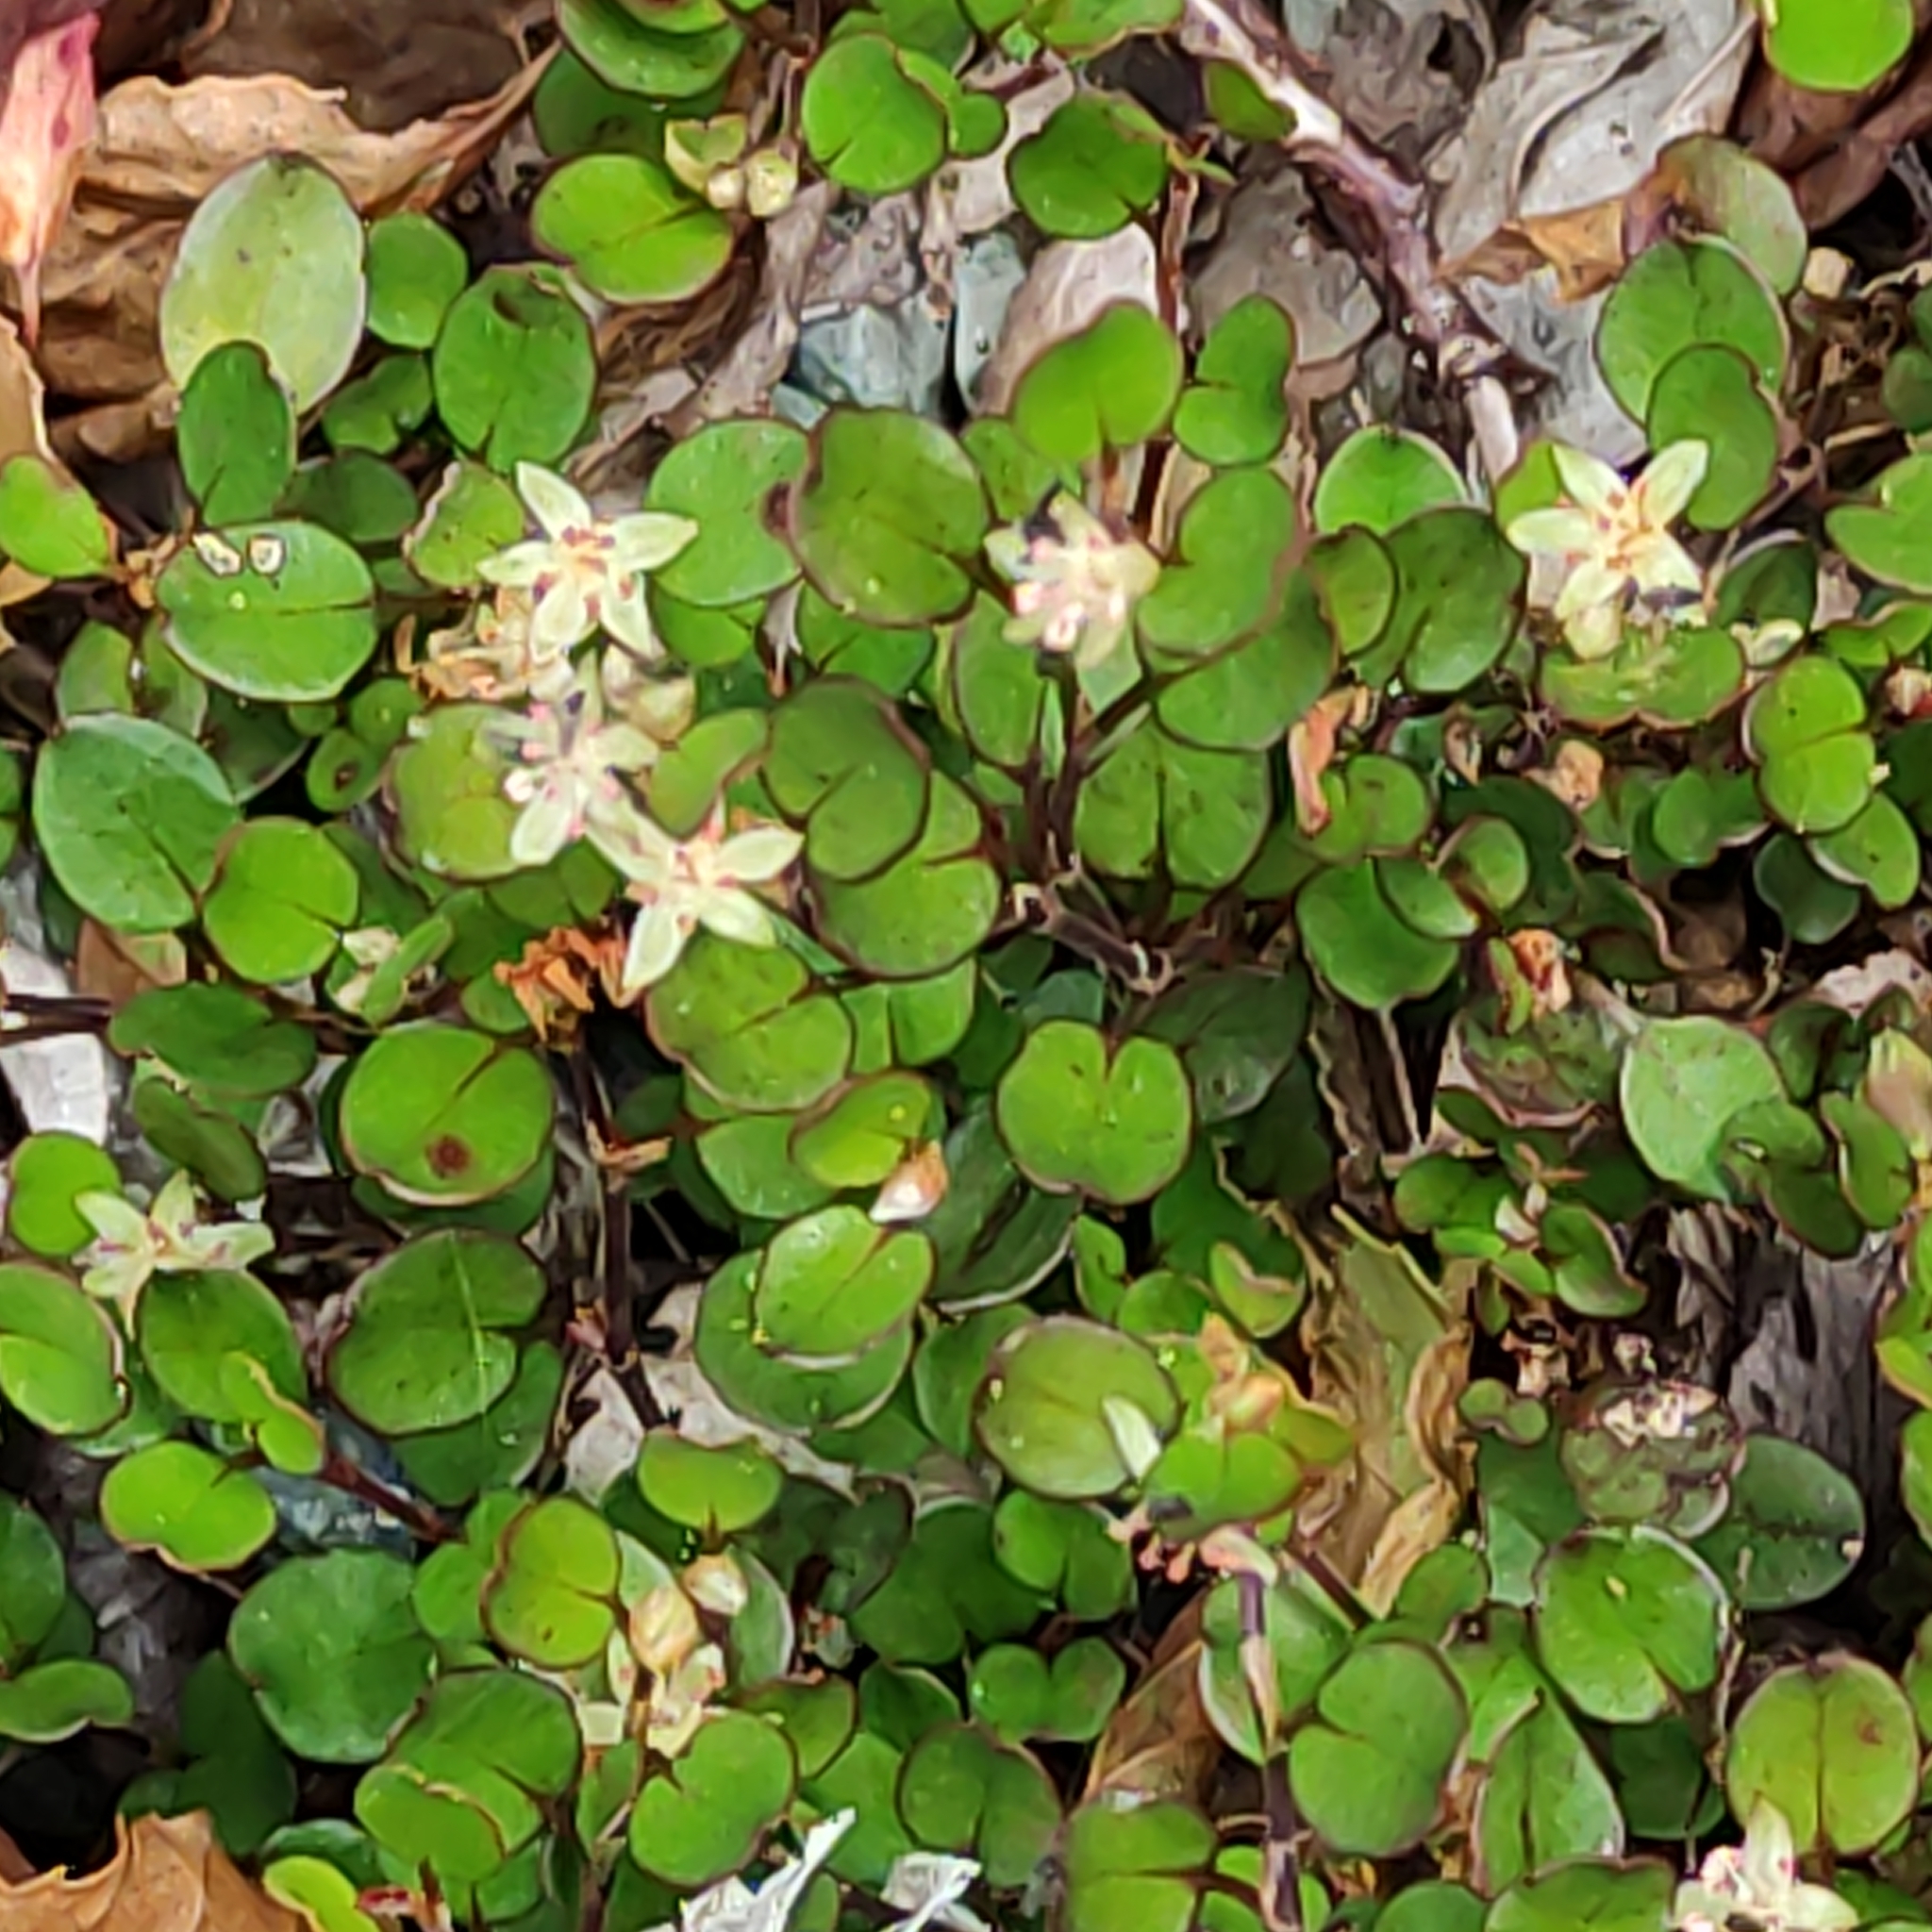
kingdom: Plantae
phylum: Tracheophyta
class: Magnoliopsida
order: Caryophyllales
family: Polygonaceae
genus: Muehlenbeckia
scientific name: Muehlenbeckia axillaris
